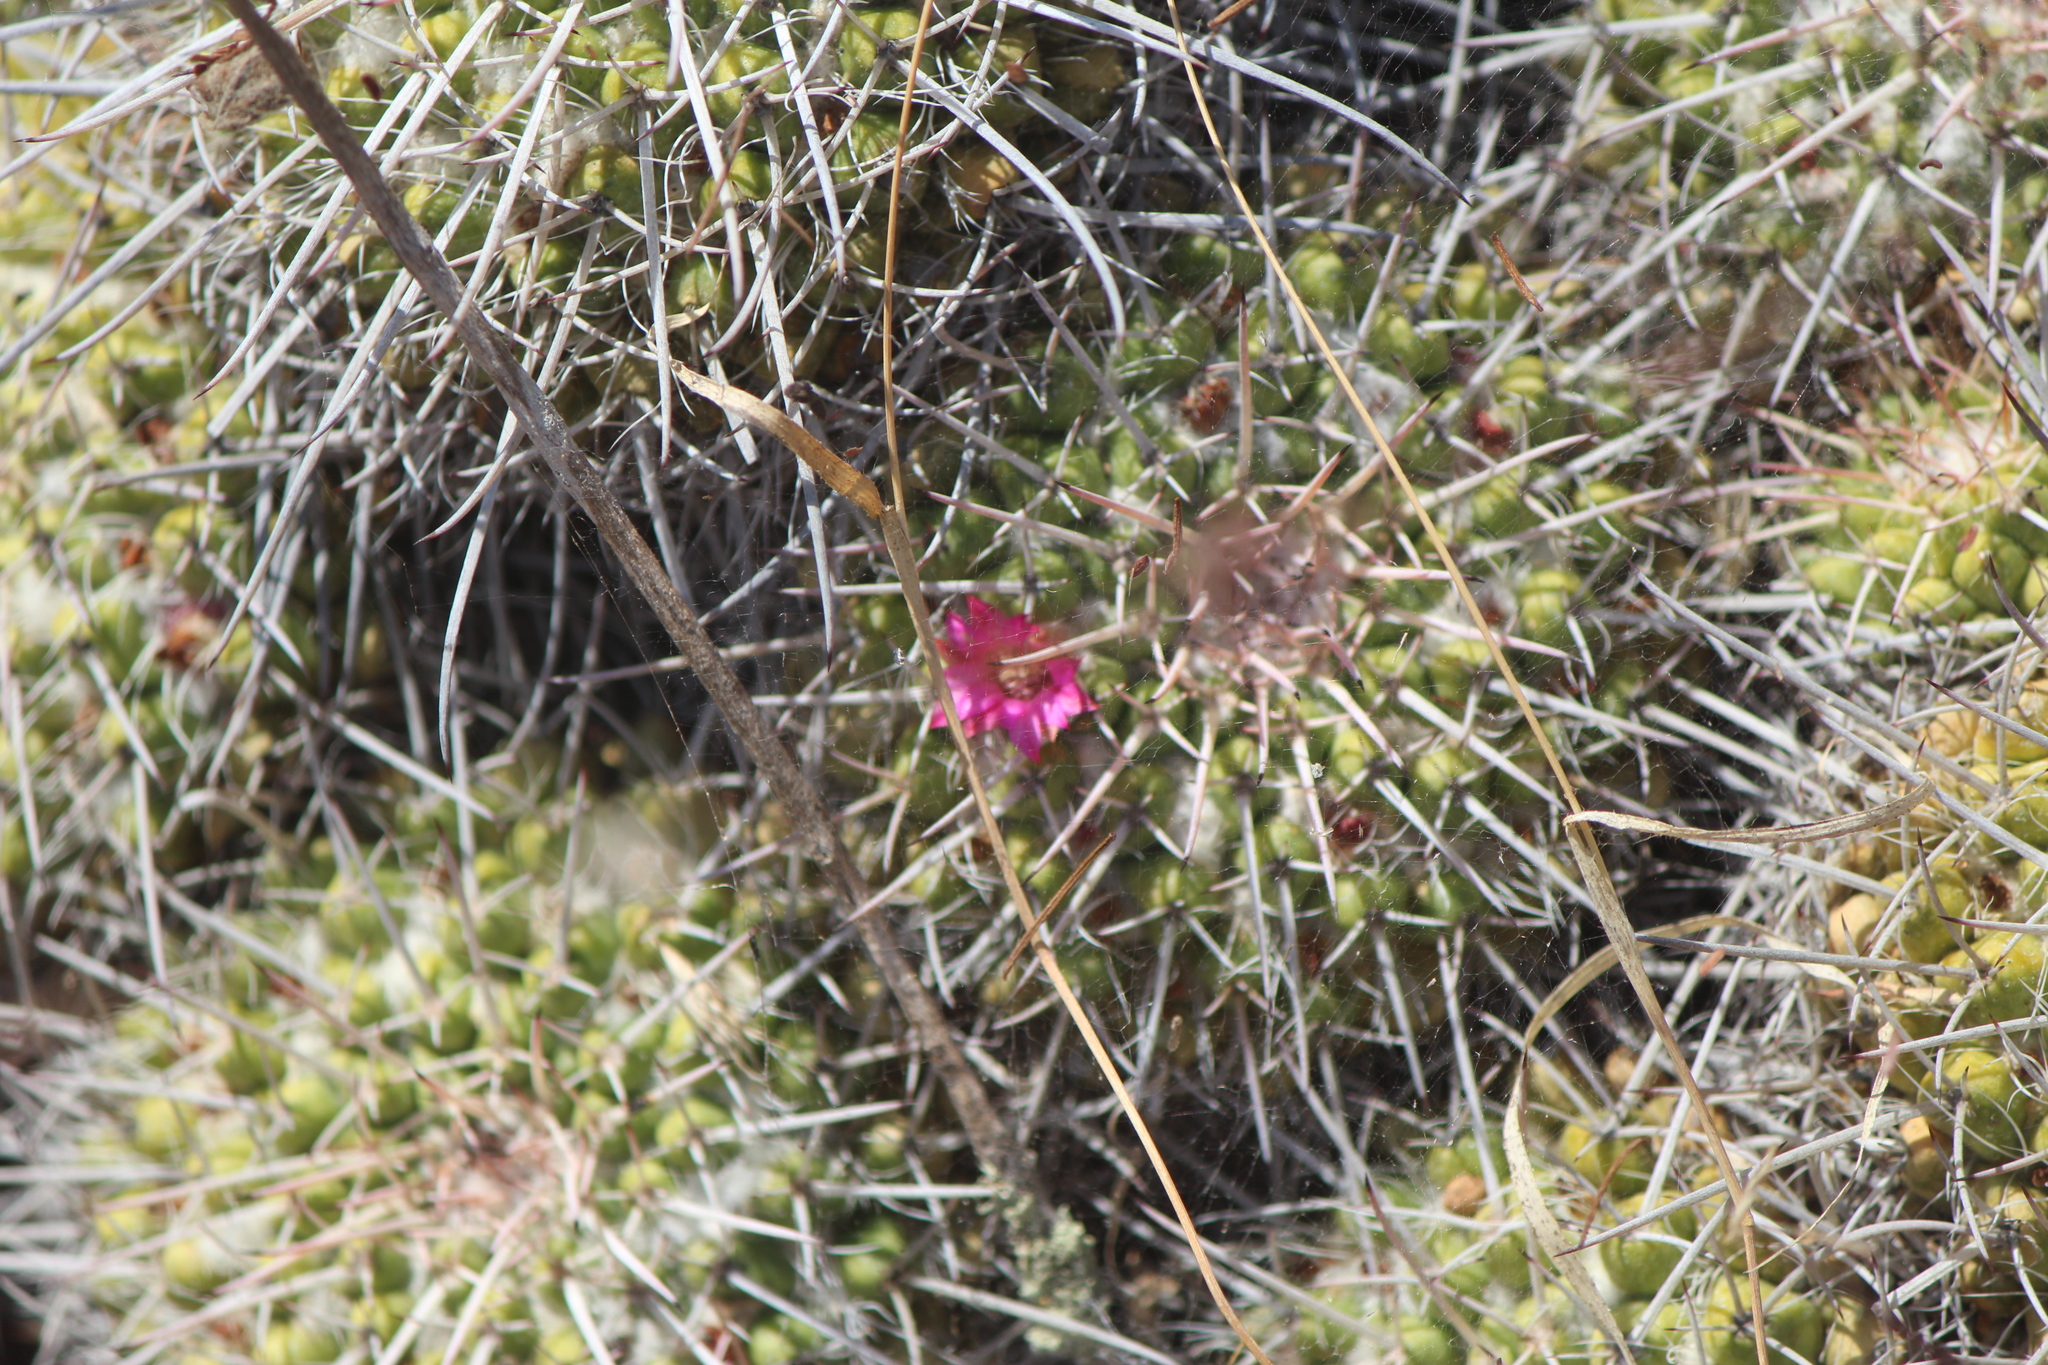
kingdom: Plantae
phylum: Tracheophyta
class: Magnoliopsida
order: Caryophyllales
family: Cactaceae
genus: Mammillaria
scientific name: Mammillaria compressa
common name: Mother-of-hundreds
